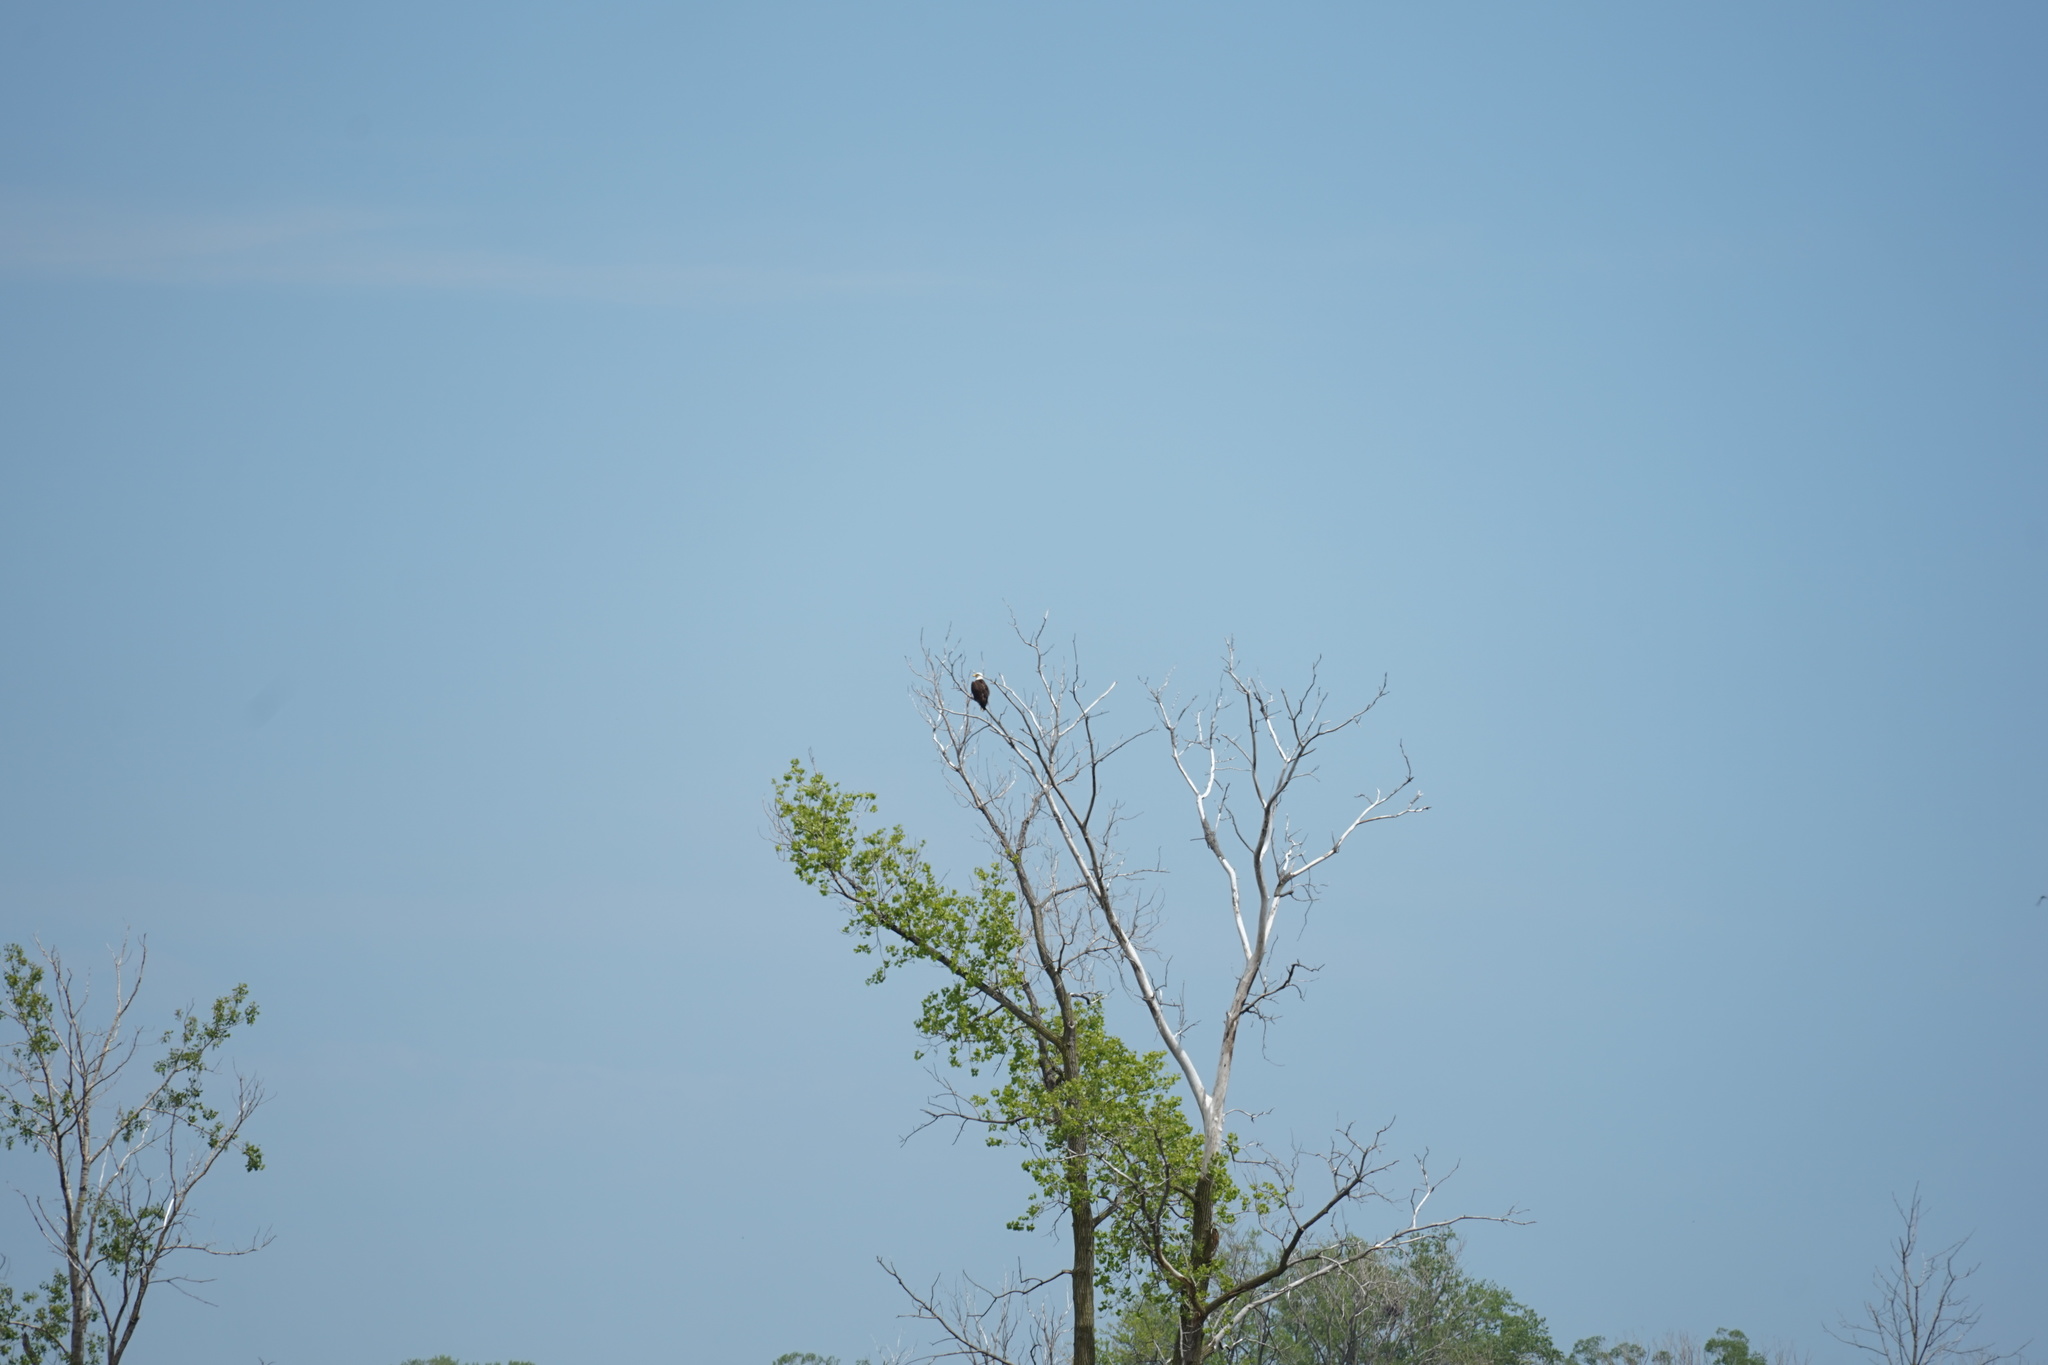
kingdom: Animalia
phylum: Chordata
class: Aves
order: Accipitriformes
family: Accipitridae
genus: Haliaeetus
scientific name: Haliaeetus leucocephalus
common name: Bald eagle
